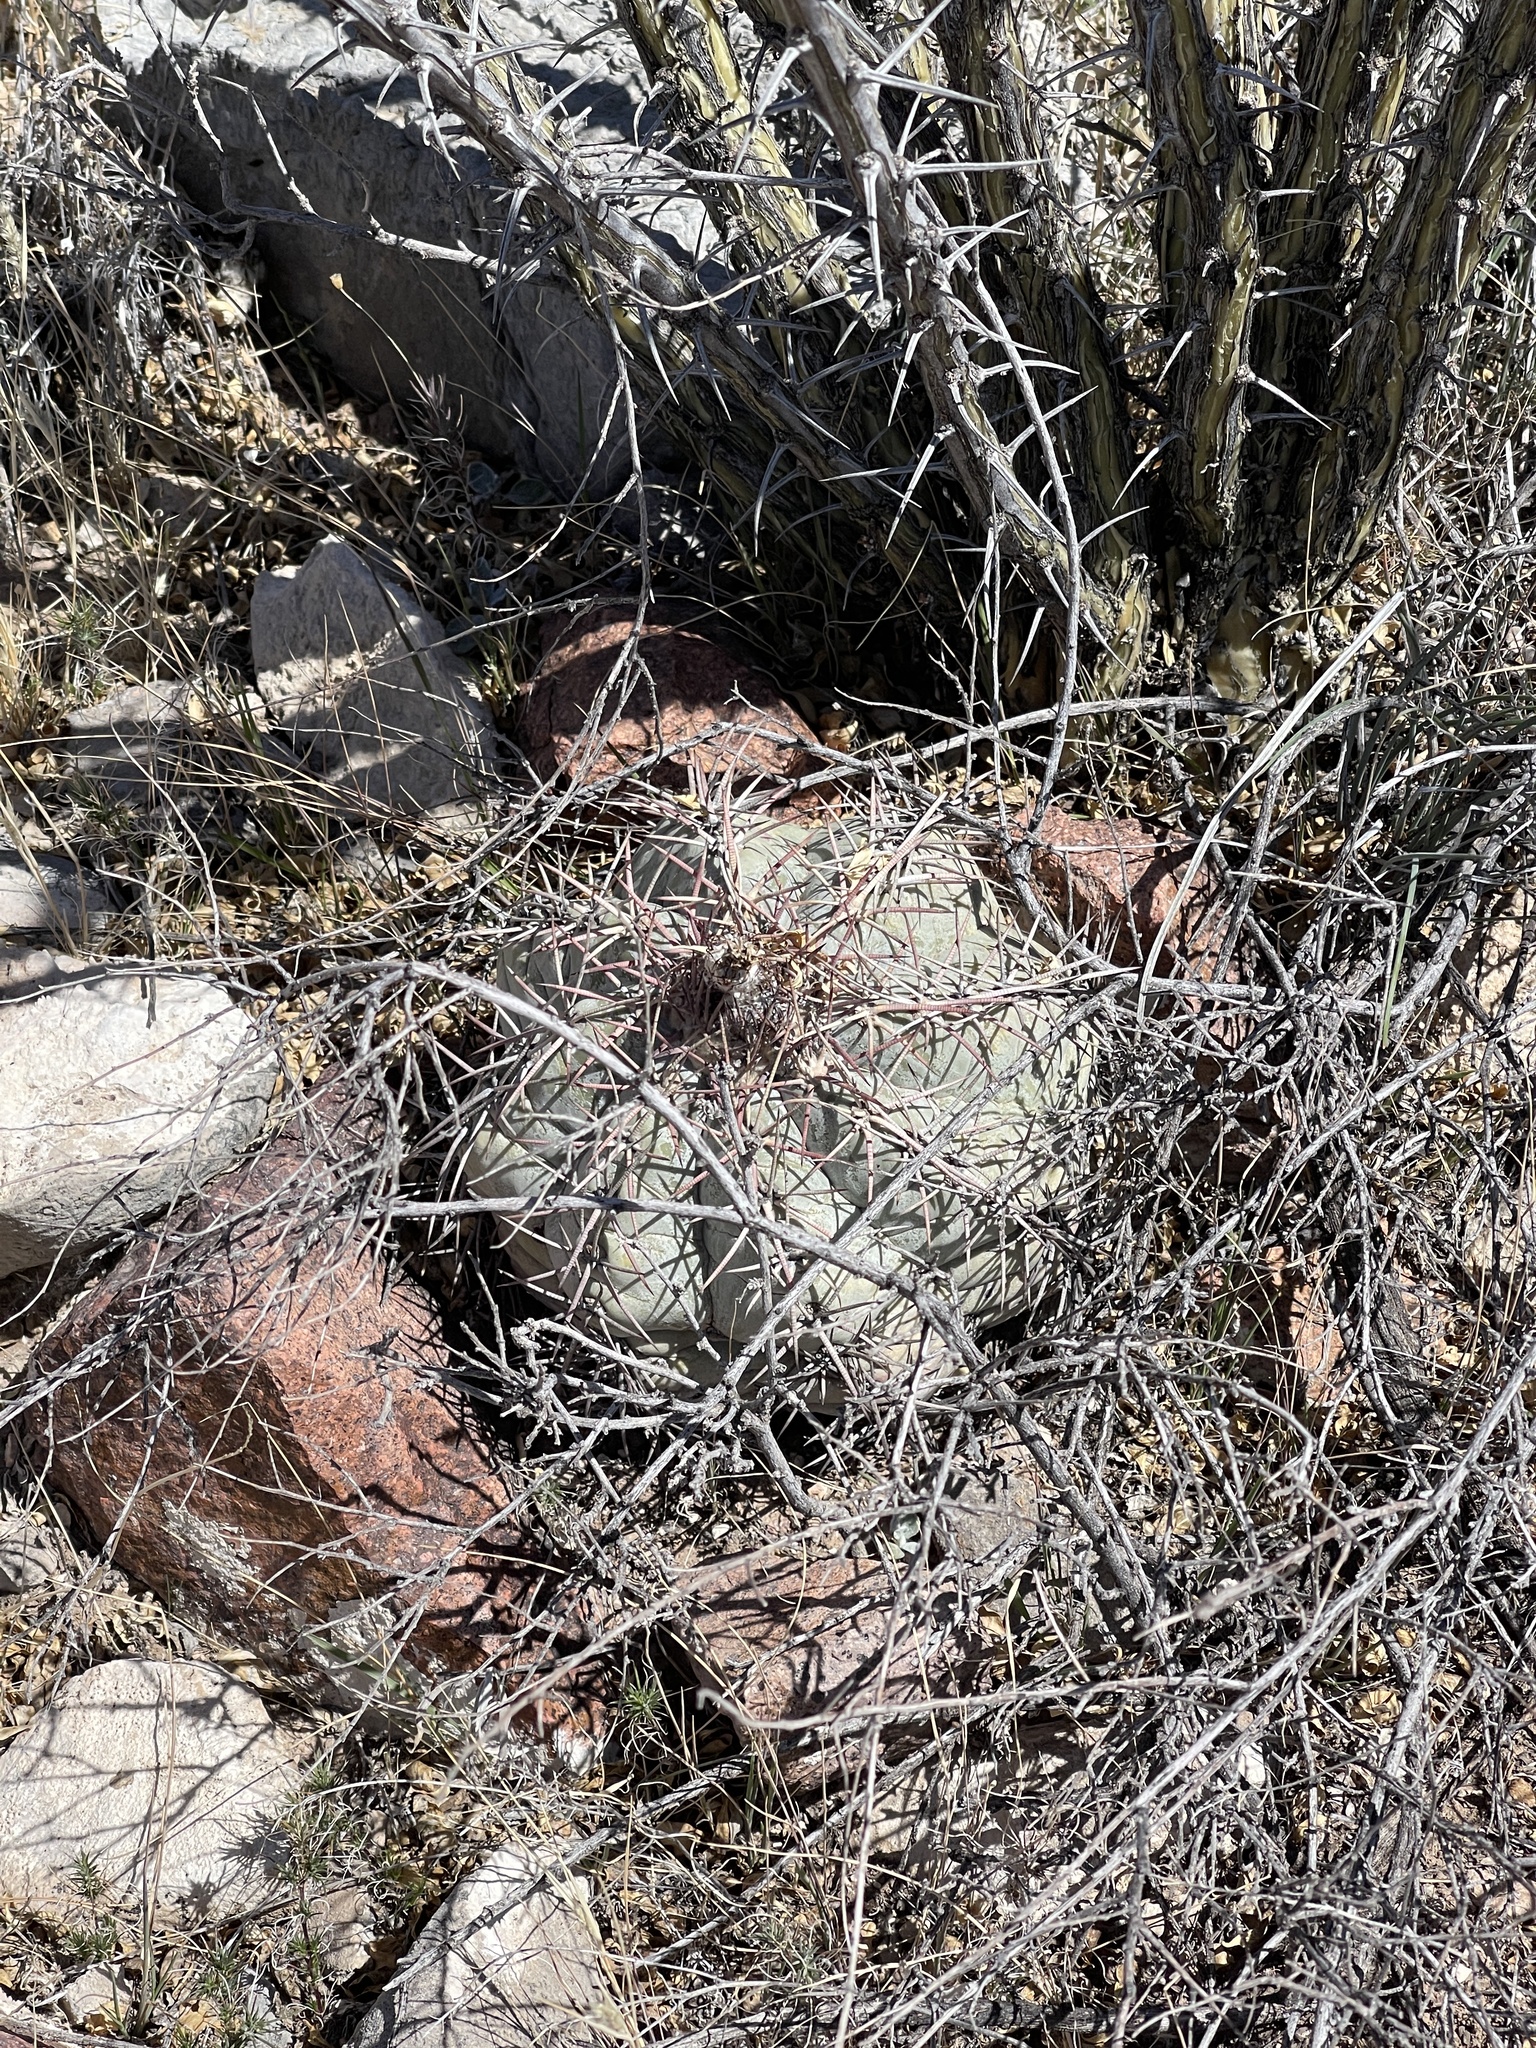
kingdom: Plantae
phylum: Tracheophyta
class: Magnoliopsida
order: Caryophyllales
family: Cactaceae
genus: Echinocactus
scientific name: Echinocactus horizonthalonius
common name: Devilshead
